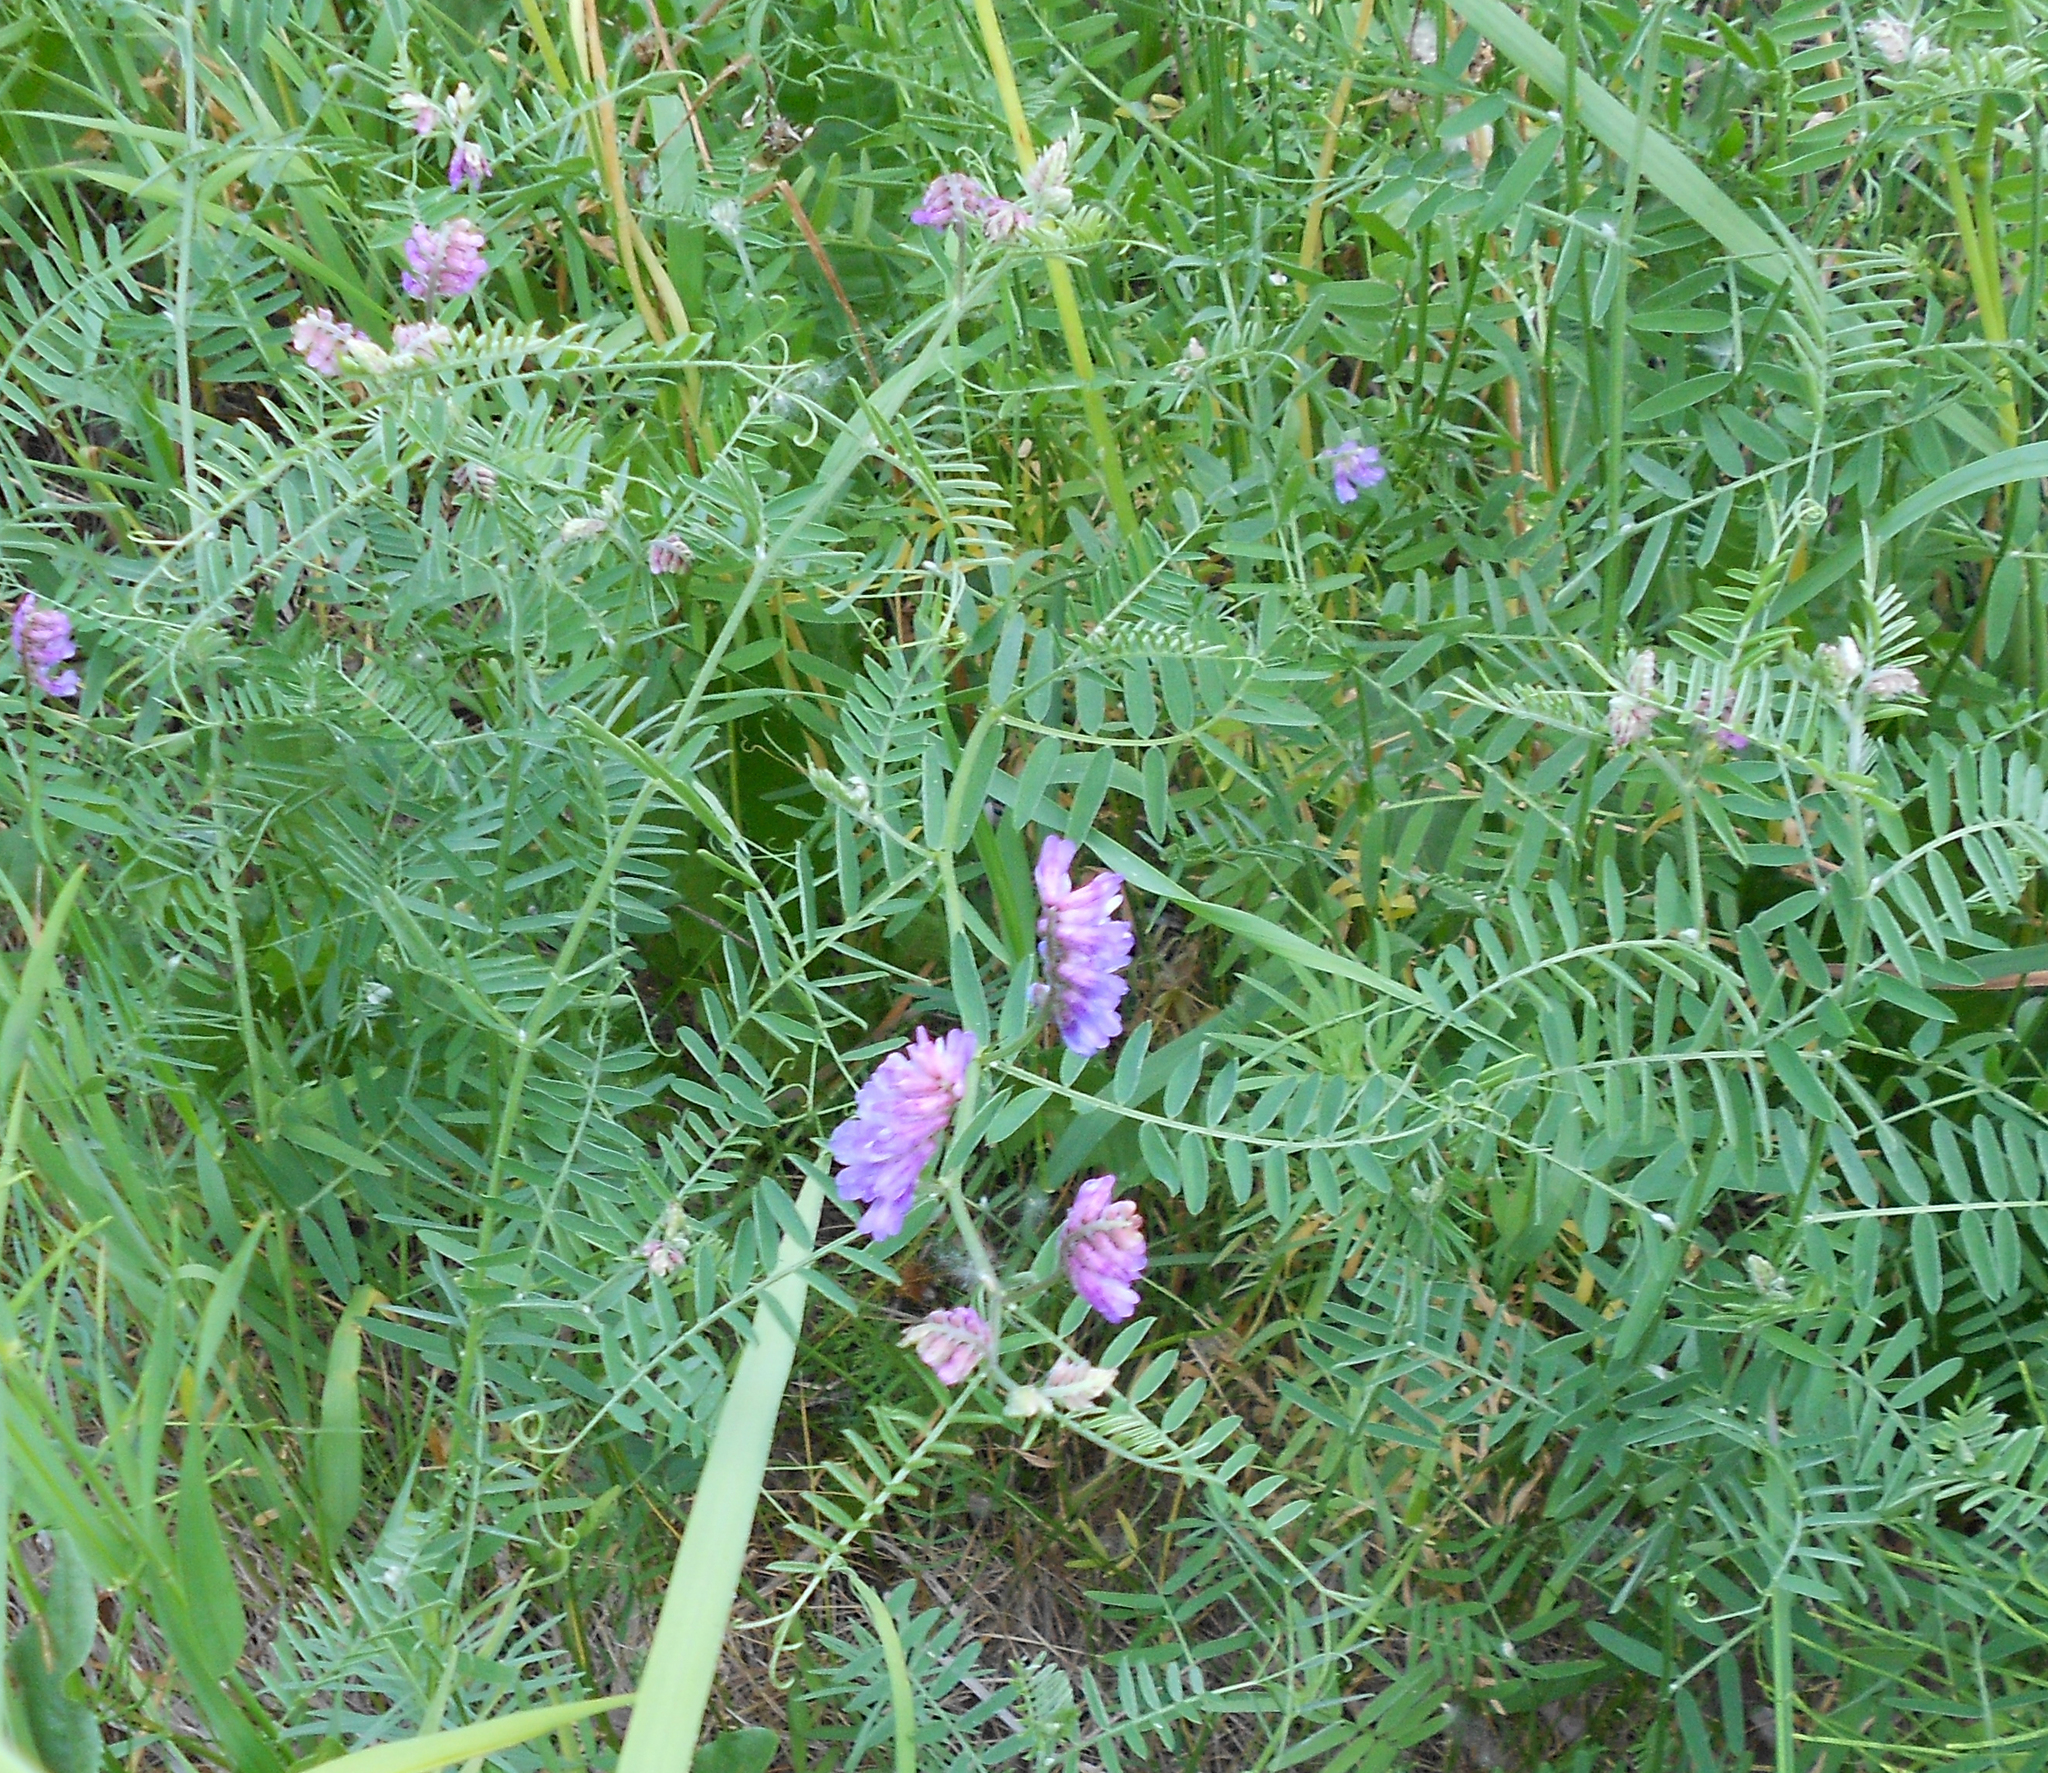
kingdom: Plantae
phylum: Tracheophyta
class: Magnoliopsida
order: Fabales
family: Fabaceae
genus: Vicia
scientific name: Vicia cracca
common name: Bird vetch
